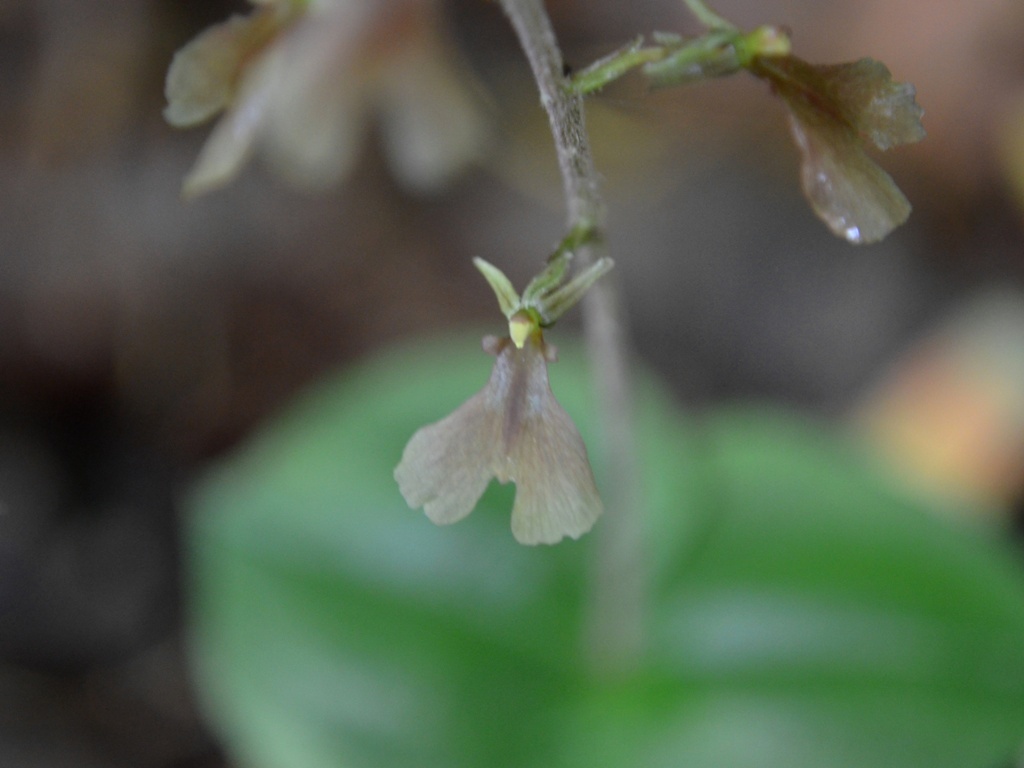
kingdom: Plantae
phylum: Tracheophyta
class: Liliopsida
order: Asparagales
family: Orchidaceae
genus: Neottia
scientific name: Neottia smallii
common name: Kidneyleaf twayblade
